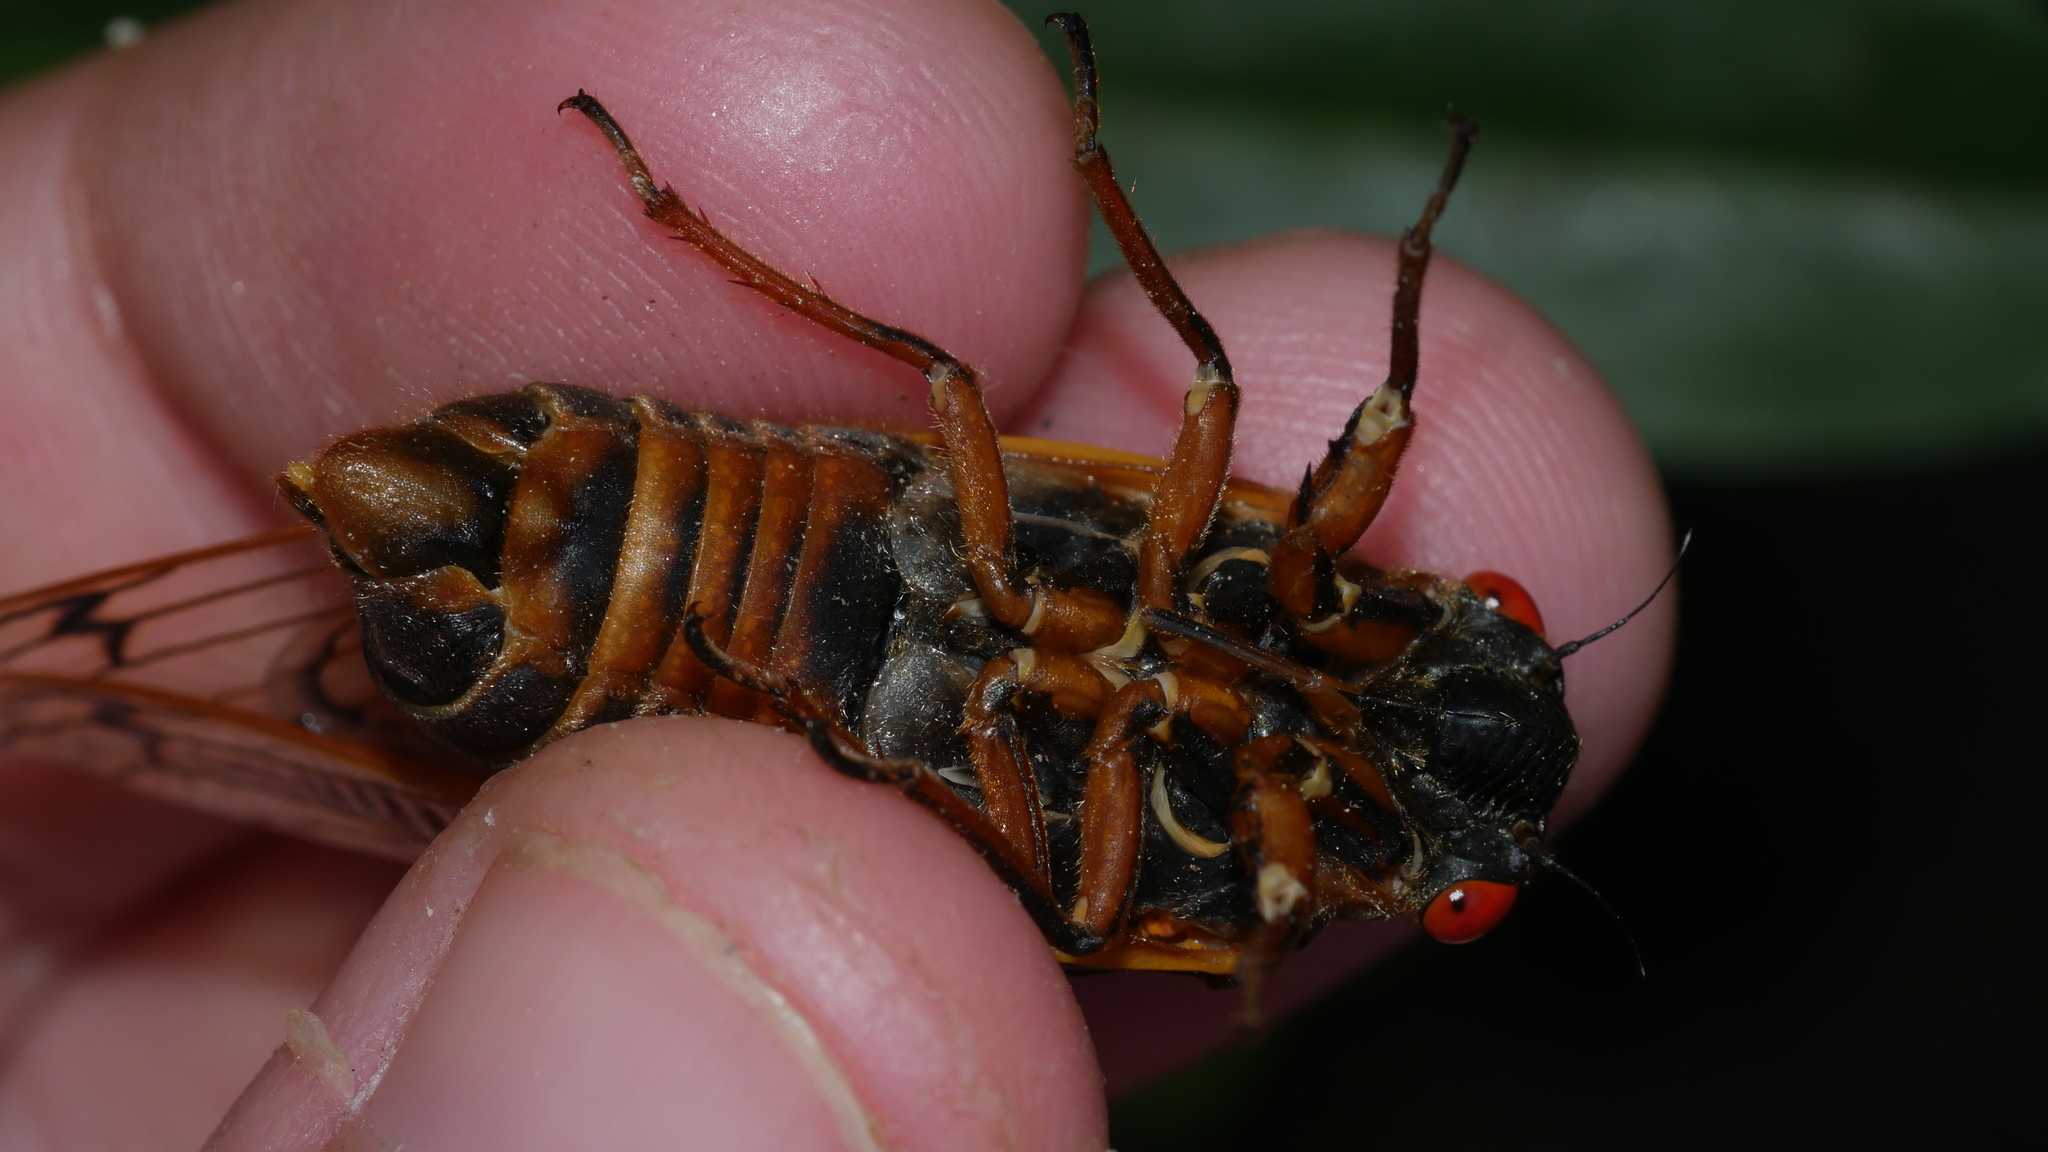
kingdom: Animalia
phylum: Arthropoda
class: Insecta
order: Hemiptera
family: Cicadidae
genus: Magicicada
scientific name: Magicicada septendecim
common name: Periodical cicada
